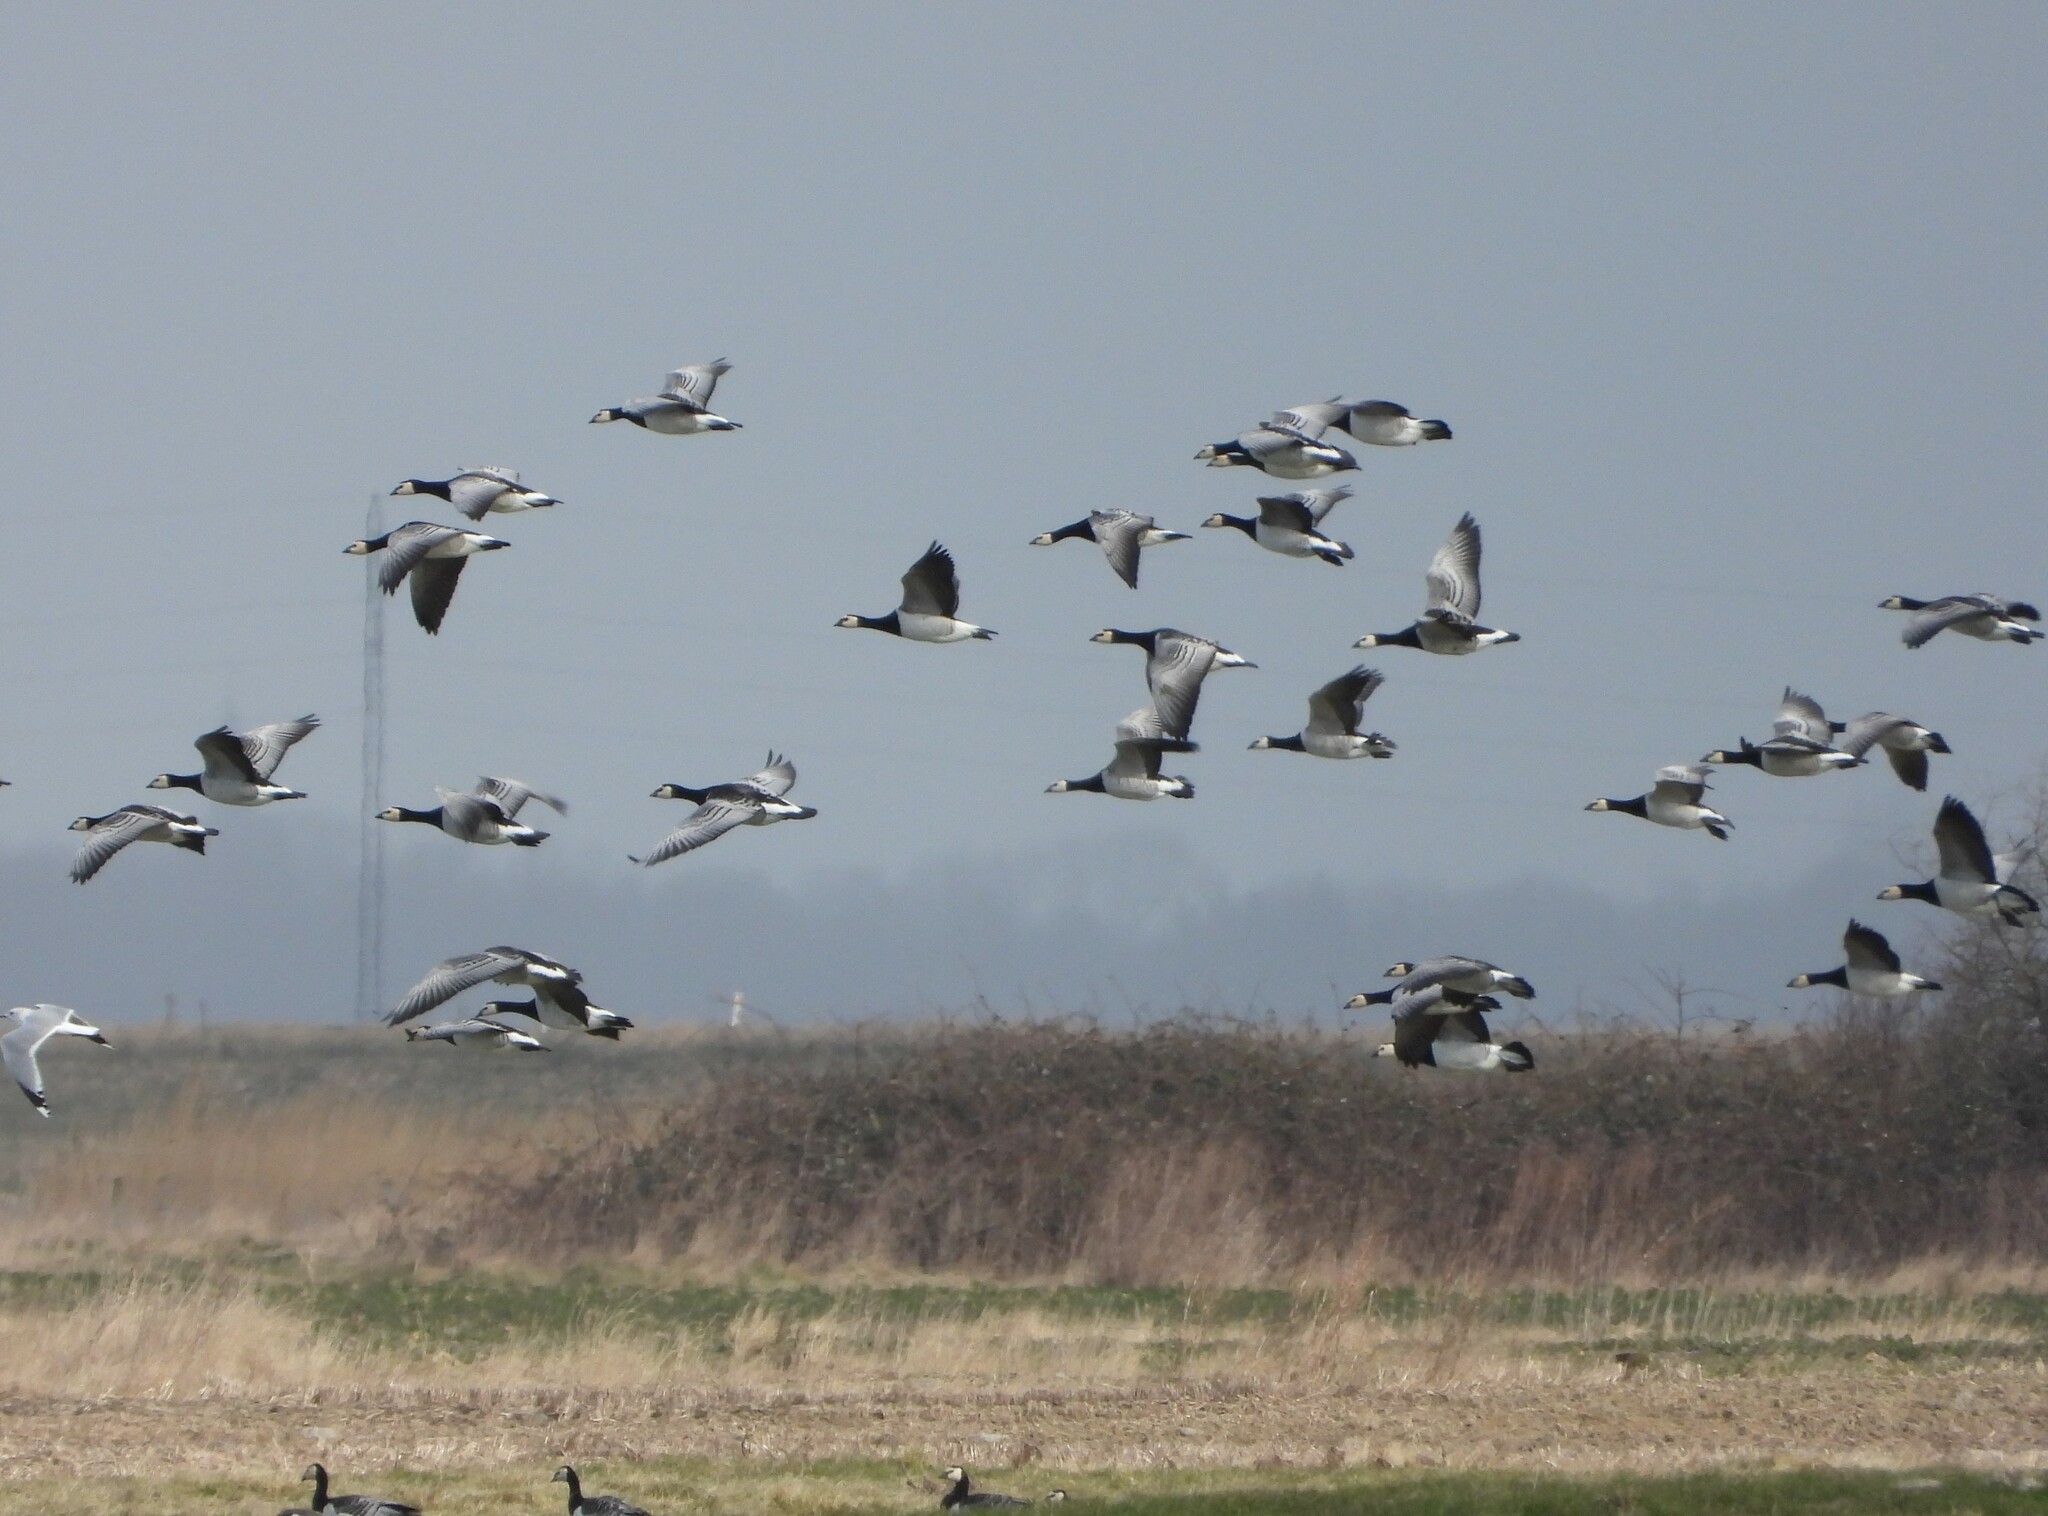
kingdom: Animalia
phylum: Chordata
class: Aves
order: Anseriformes
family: Anatidae
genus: Branta
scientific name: Branta leucopsis
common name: Barnacle goose
